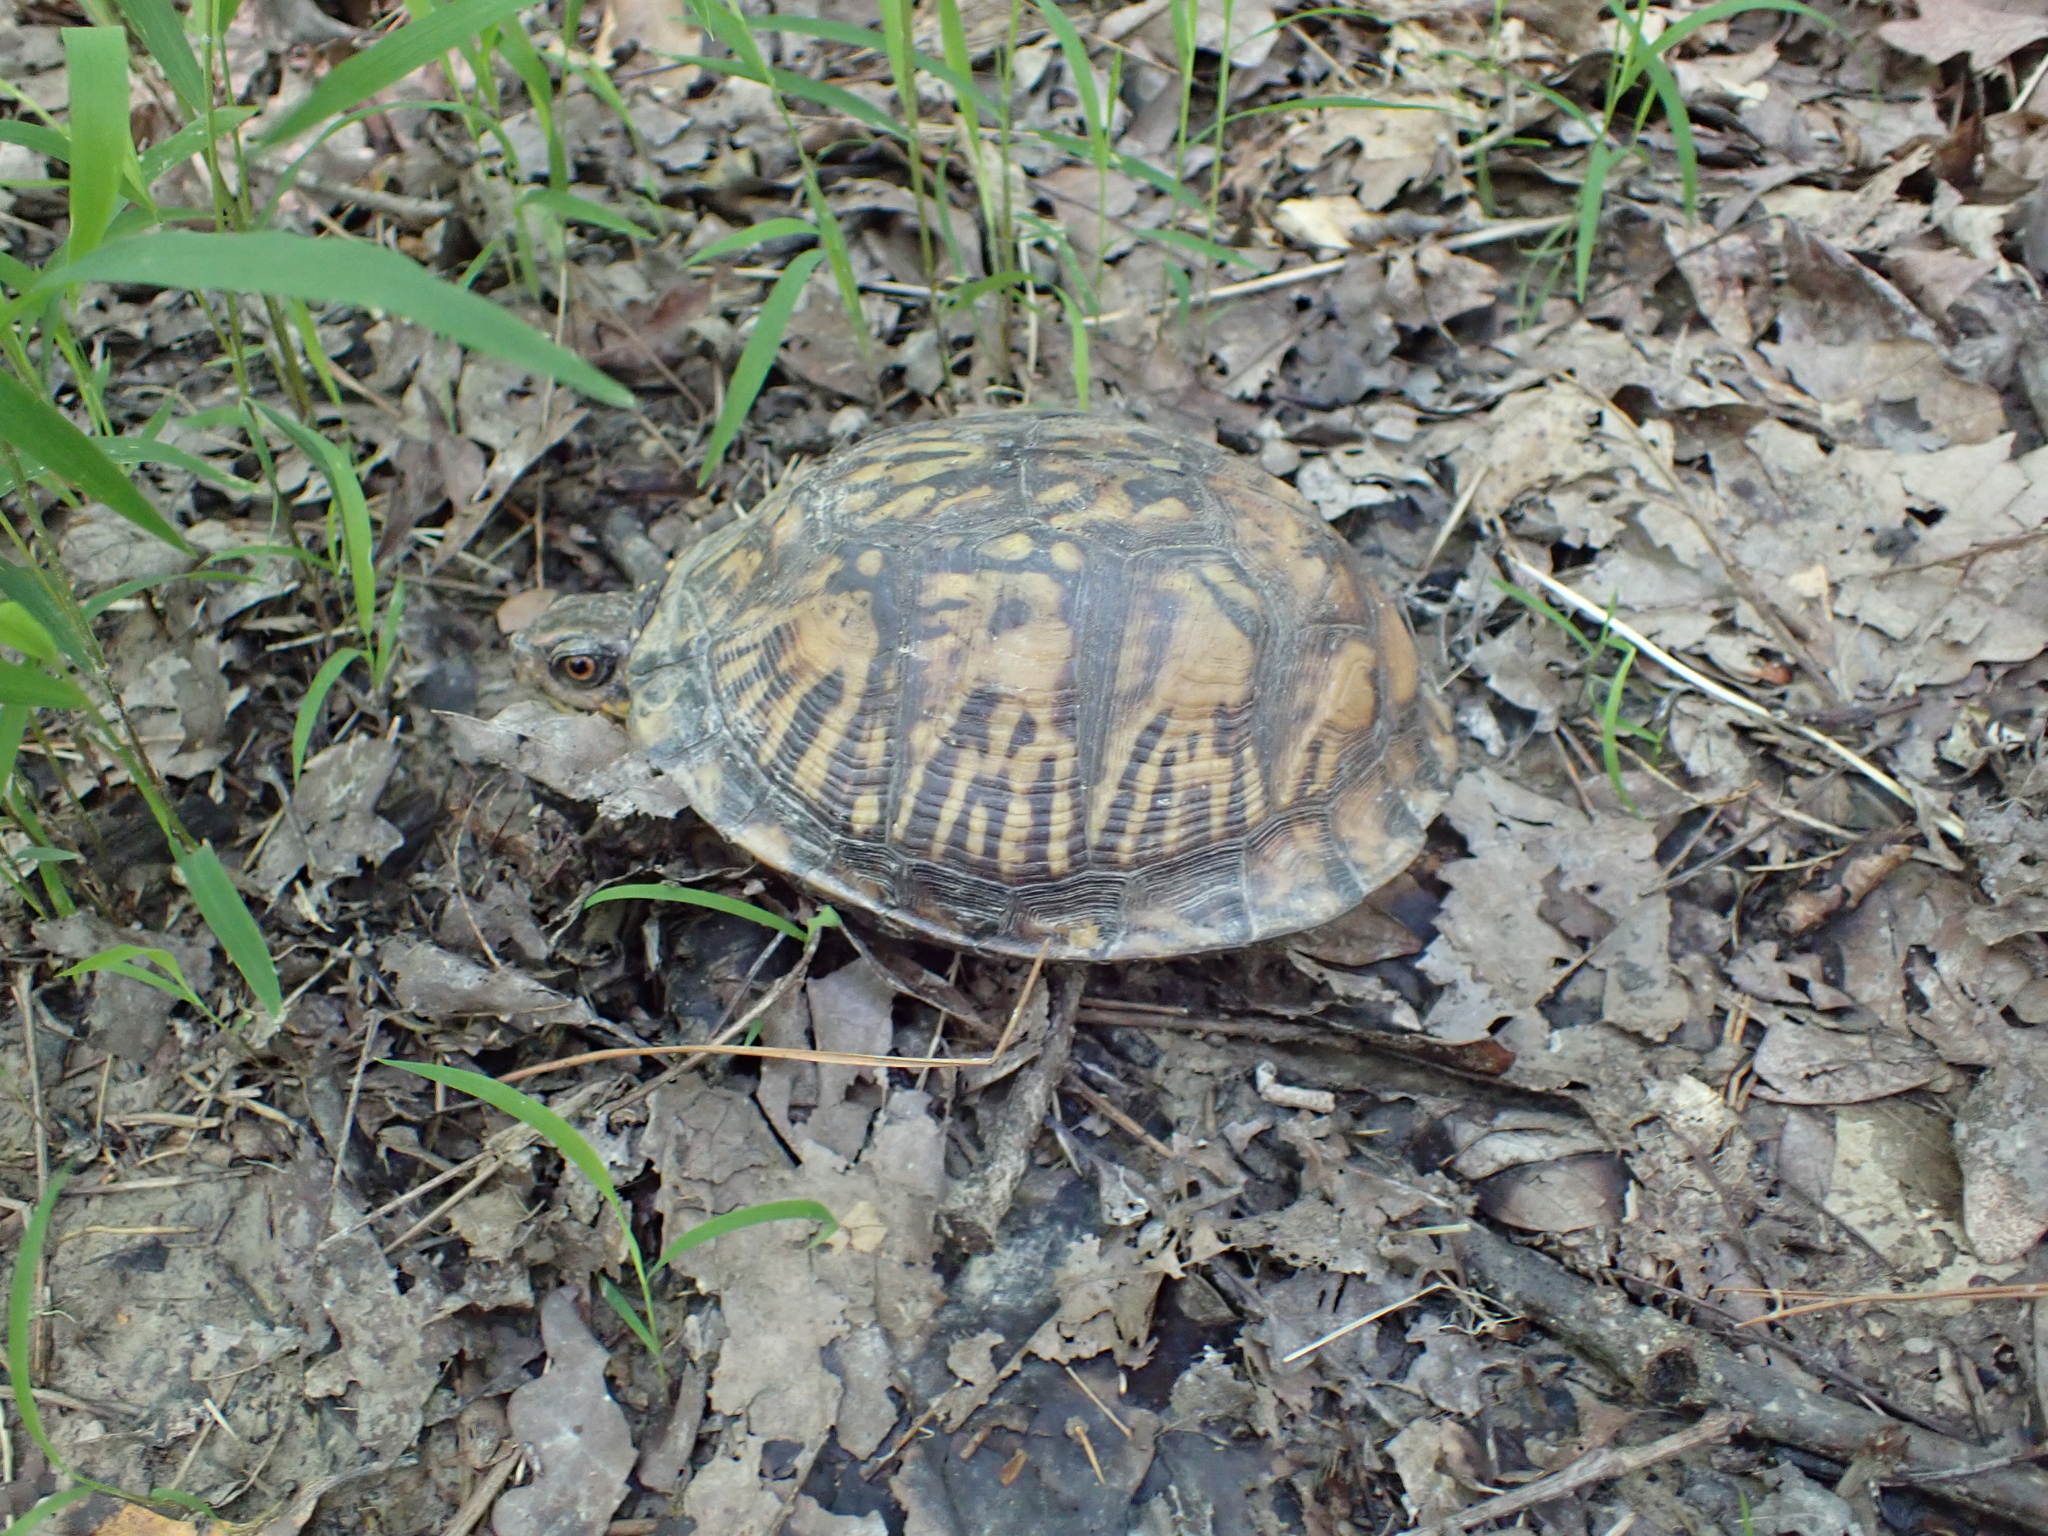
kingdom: Animalia
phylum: Chordata
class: Testudines
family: Emydidae
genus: Terrapene
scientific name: Terrapene carolina
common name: Common box turtle
